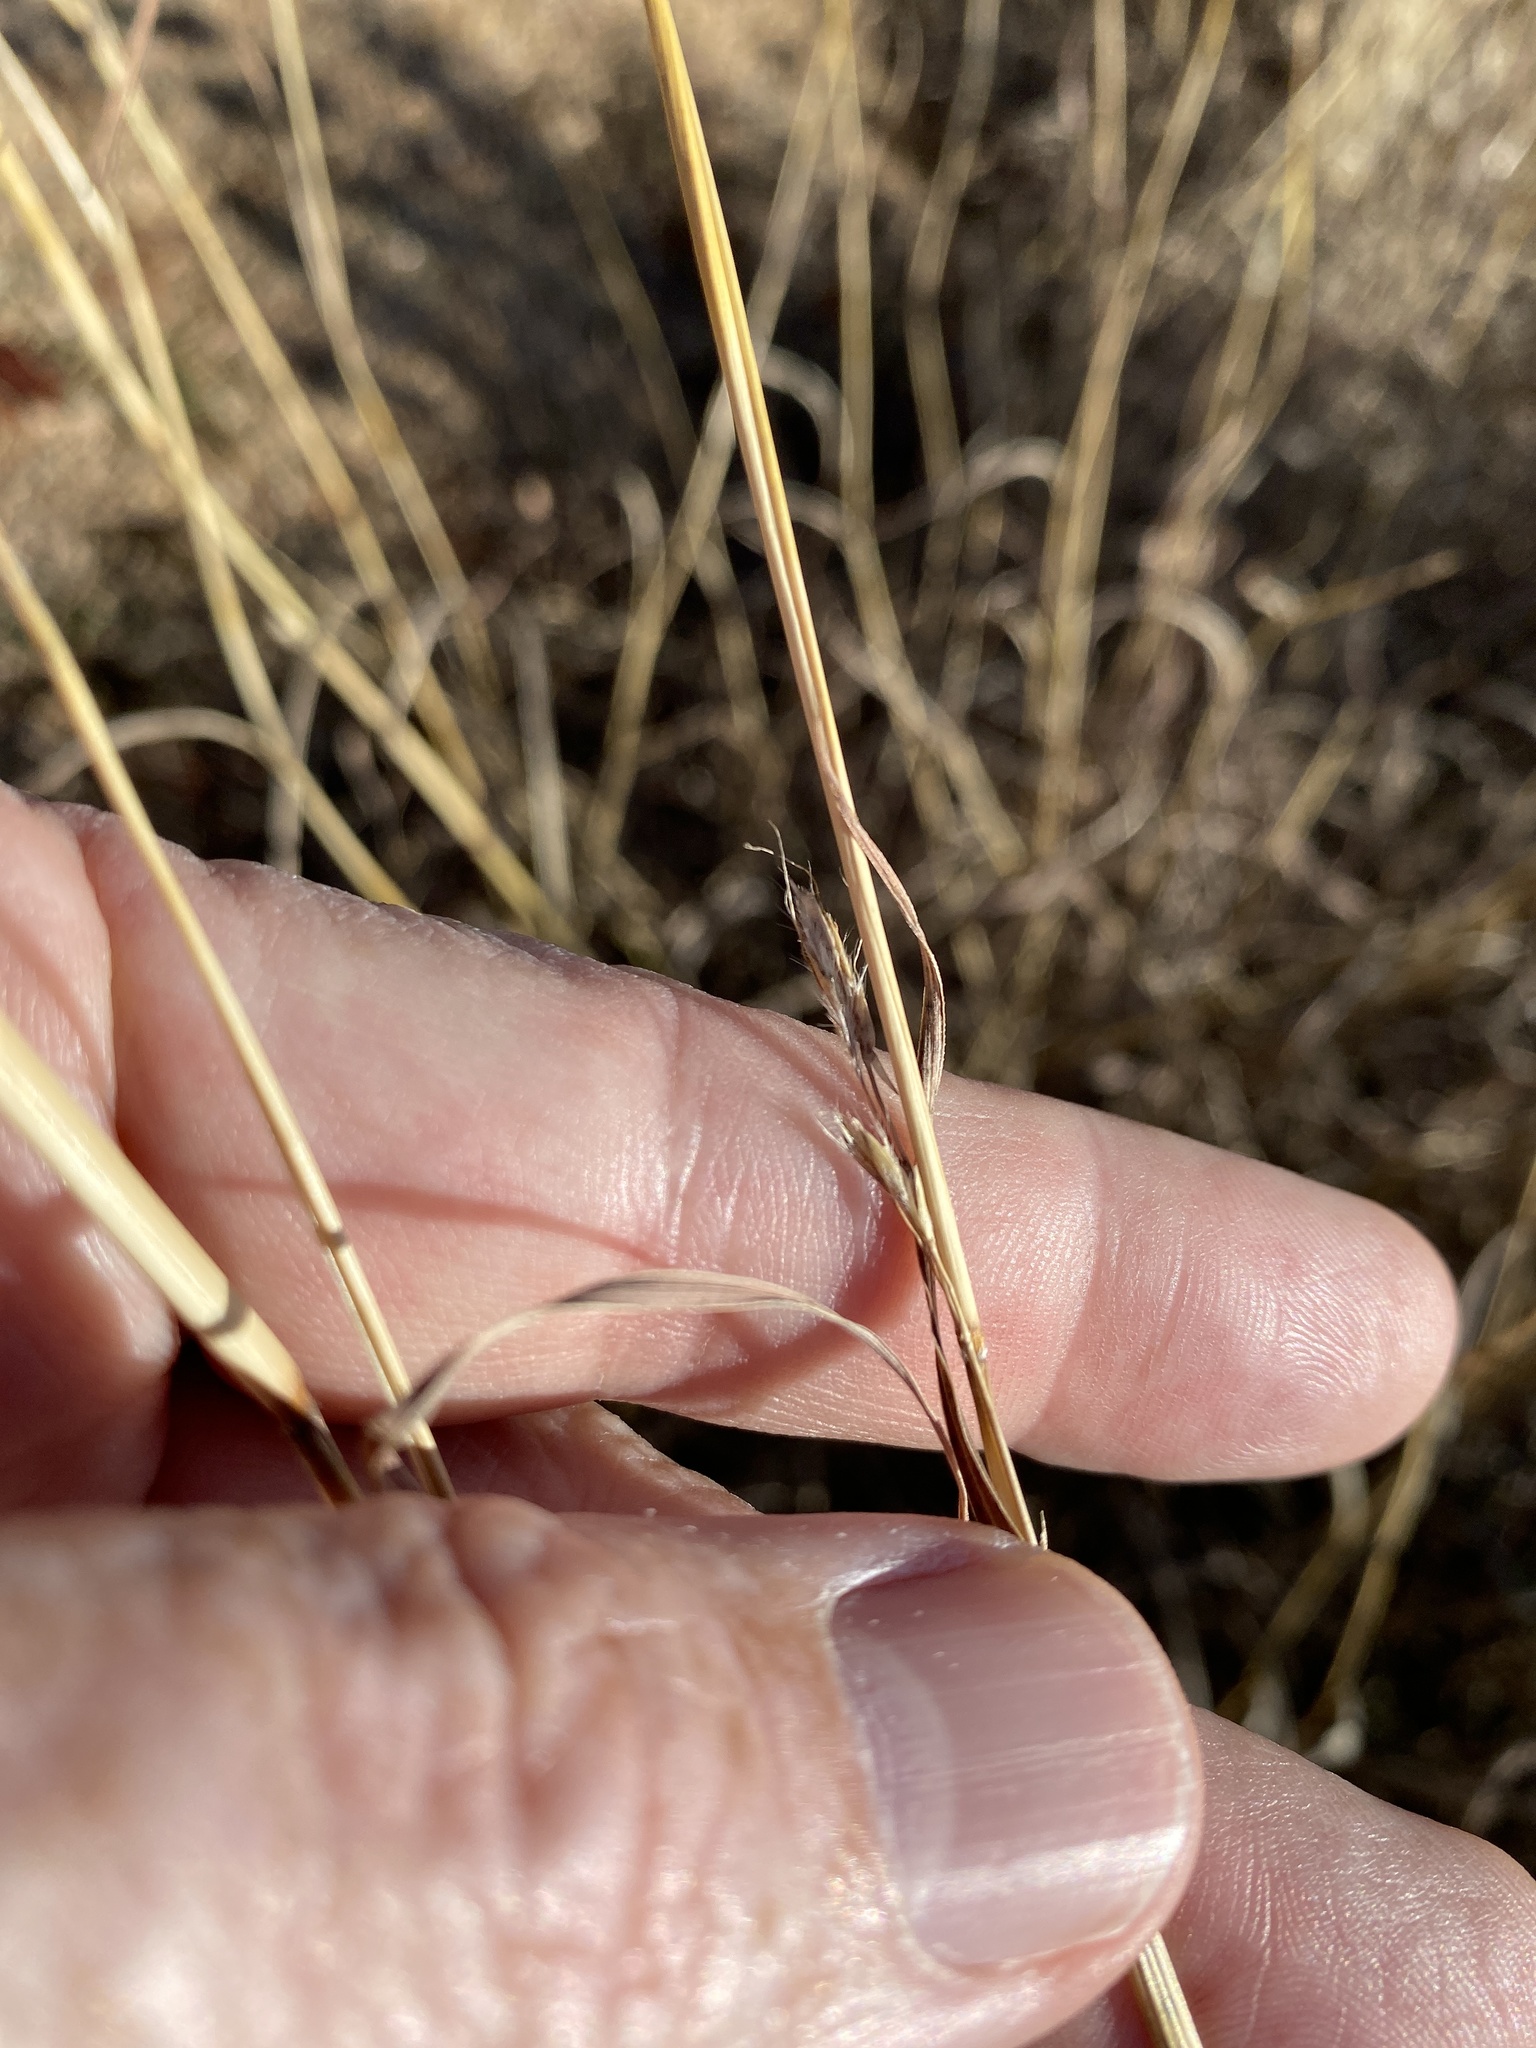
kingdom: Plantae
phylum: Tracheophyta
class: Liliopsida
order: Poales
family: Poaceae
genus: Bothriochloa
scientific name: Bothriochloa ischaemum
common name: Yellow bluestem
